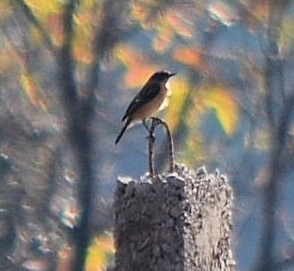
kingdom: Animalia
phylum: Chordata
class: Aves
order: Passeriformes
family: Muscicapidae
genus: Saxicola
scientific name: Saxicola maurus
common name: Siberian stonechat
